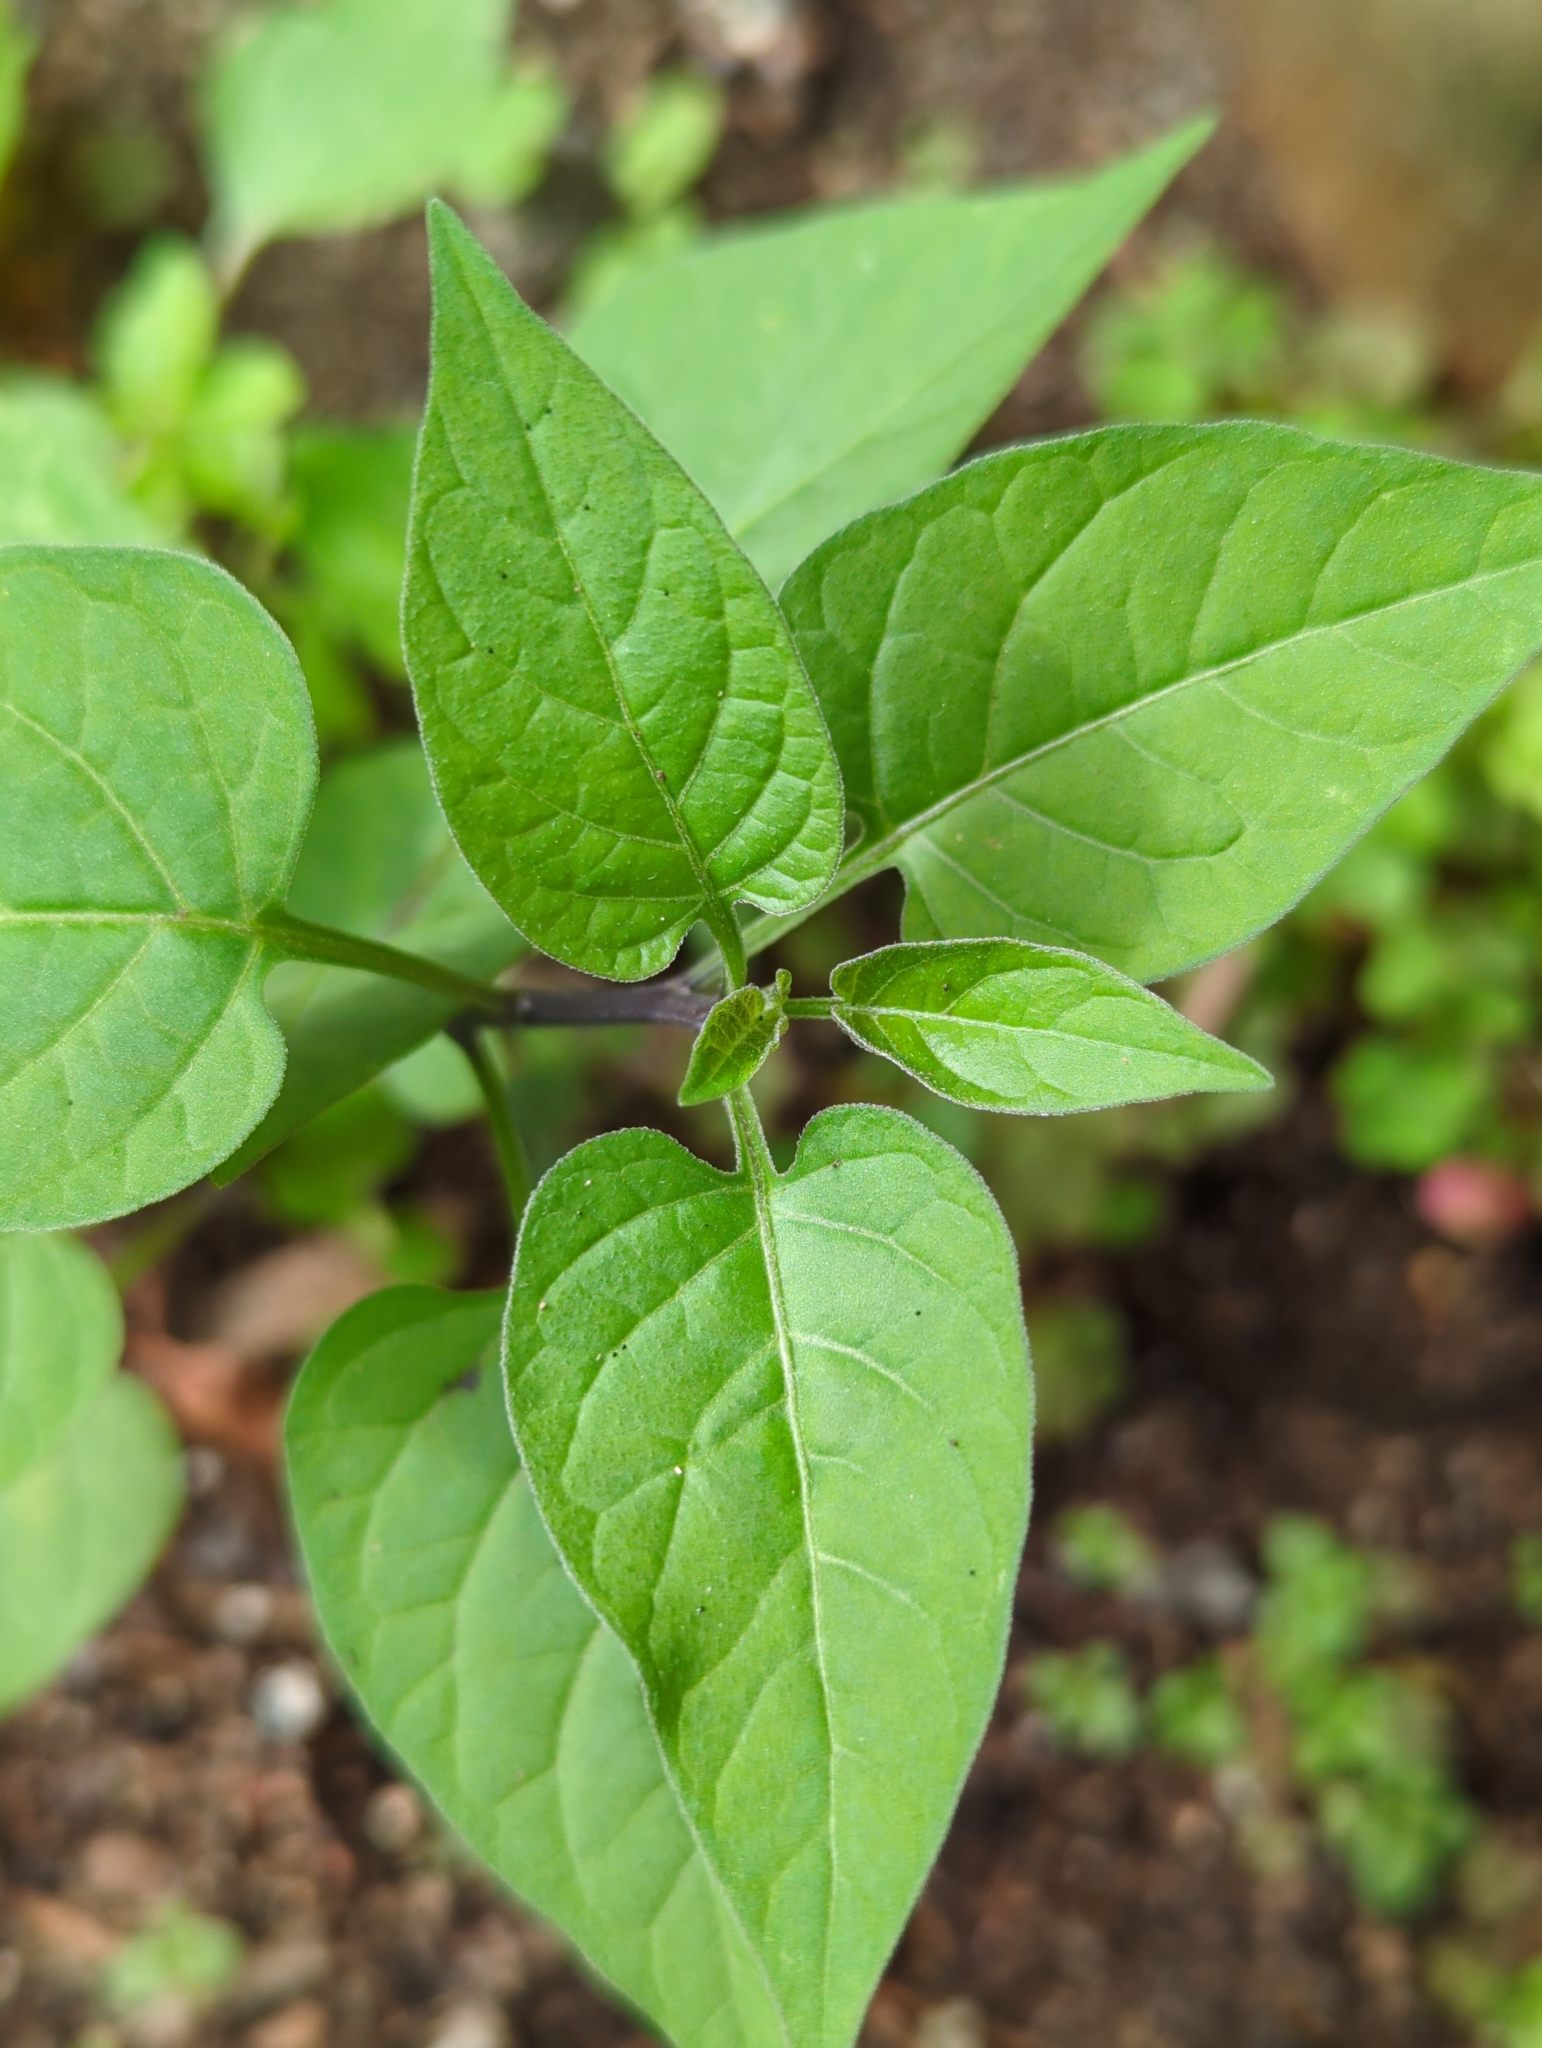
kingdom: Plantae
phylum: Tracheophyta
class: Magnoliopsida
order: Solanales
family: Solanaceae
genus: Solanum
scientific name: Solanum dulcamara
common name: Climbing nightshade
